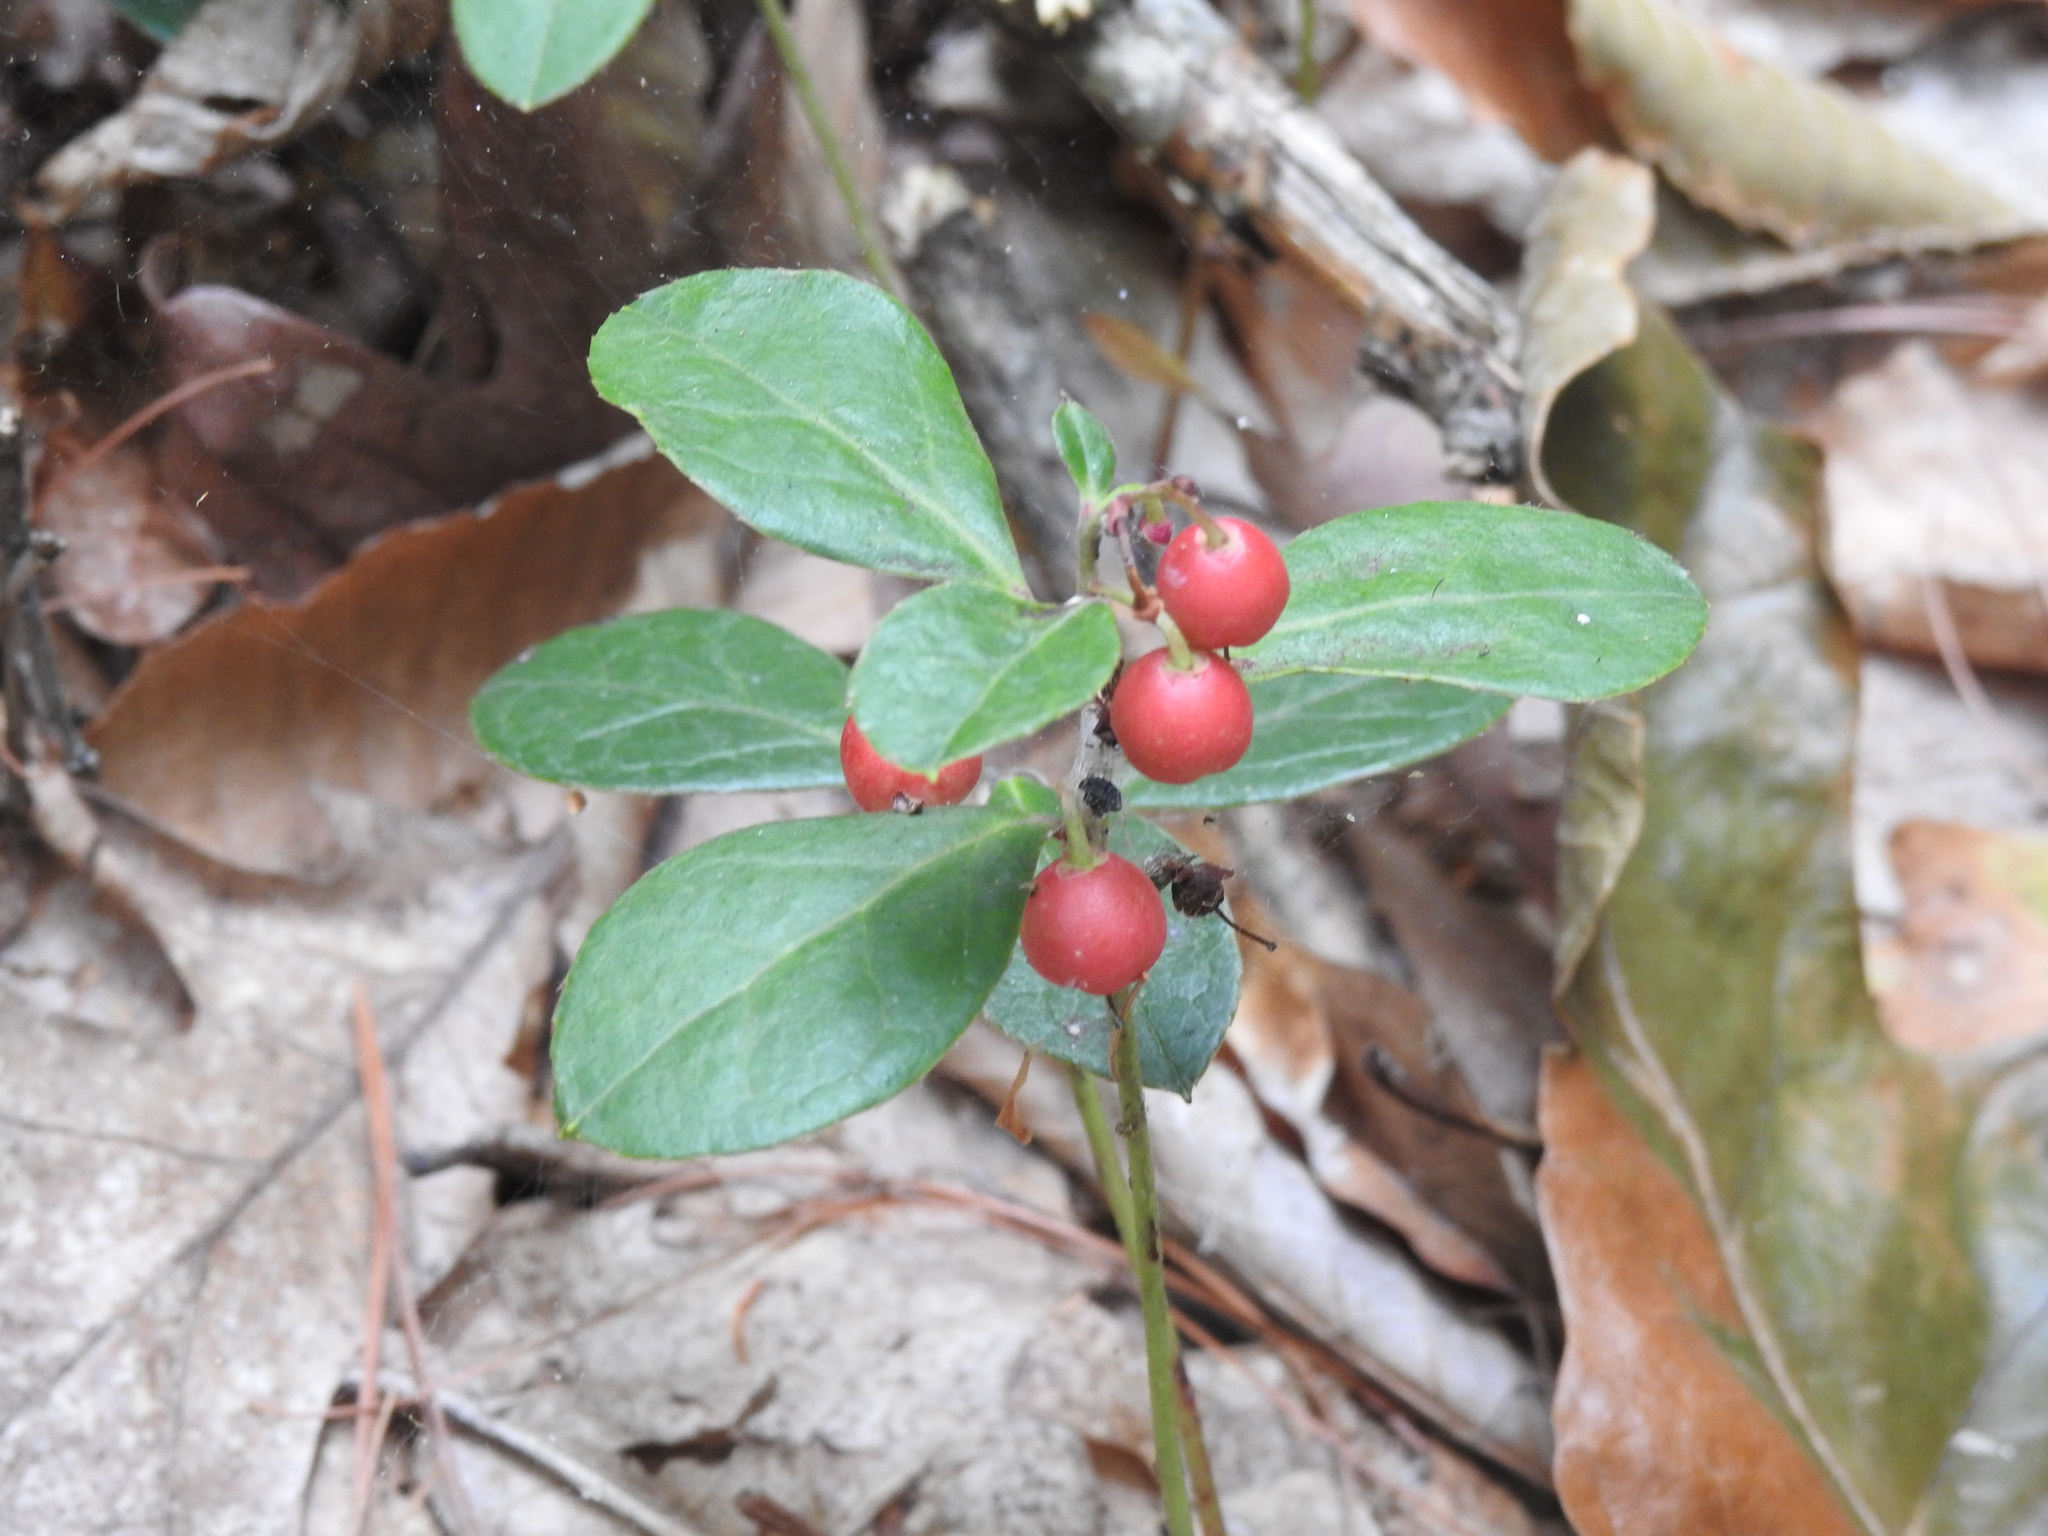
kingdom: Plantae
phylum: Tracheophyta
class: Magnoliopsida
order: Ericales
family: Ericaceae
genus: Gaultheria
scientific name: Gaultheria procumbens
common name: Checkerberry
